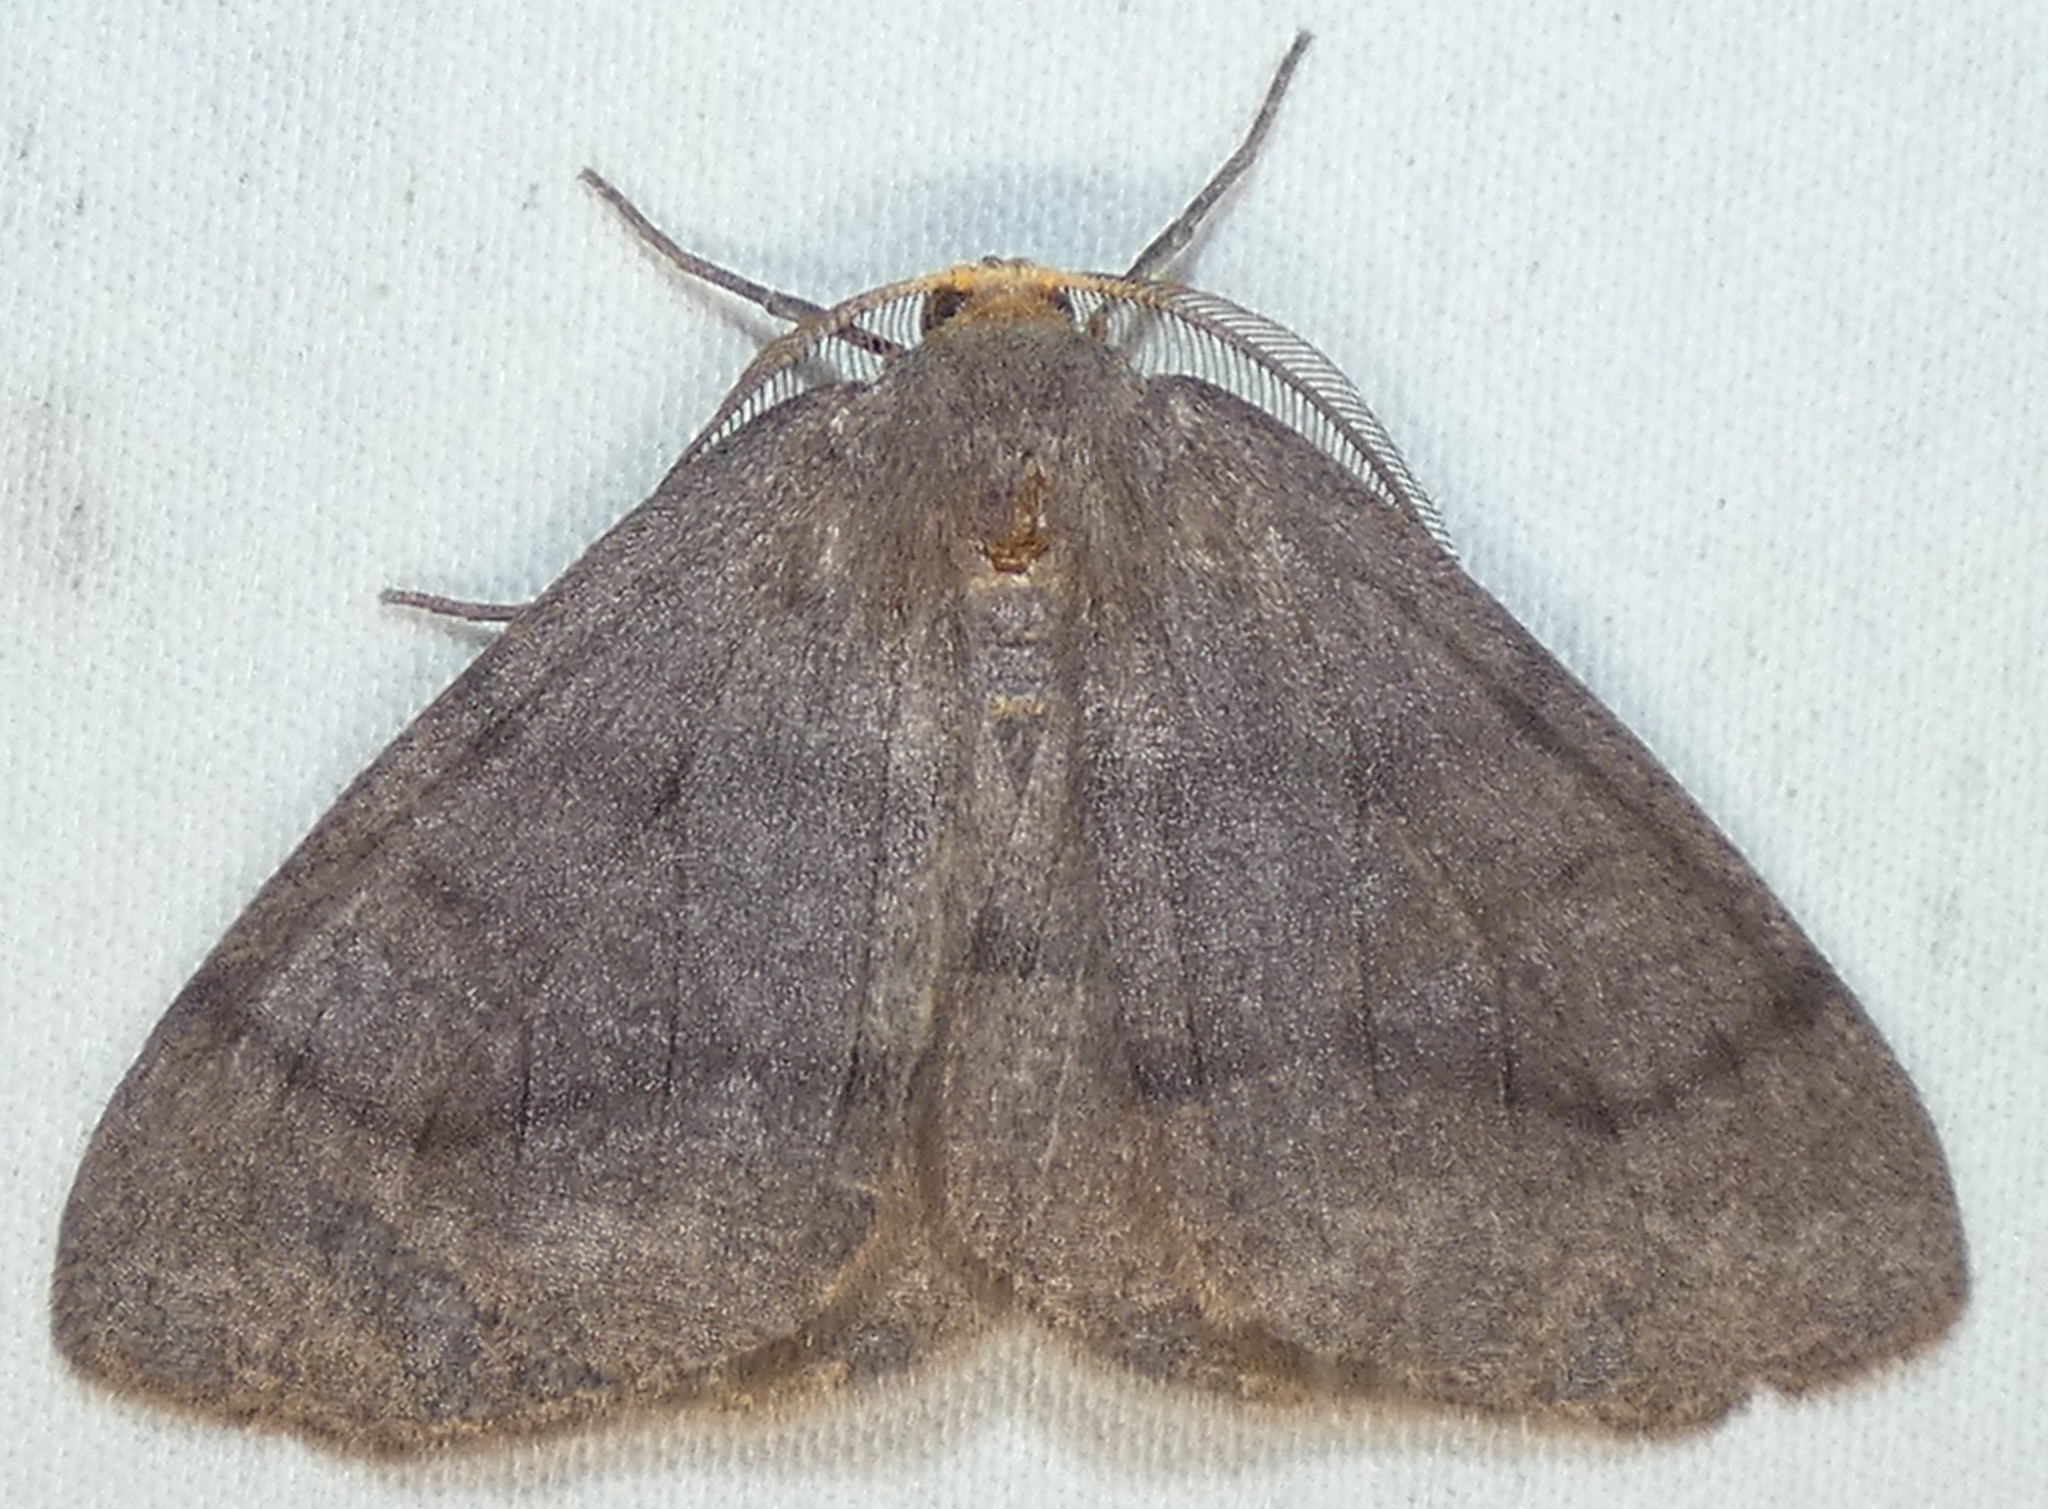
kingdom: Animalia
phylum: Arthropoda
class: Insecta
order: Lepidoptera
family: Geometridae
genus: Lambdina
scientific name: Lambdina pellucidaria
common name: Eastern pinelooper
